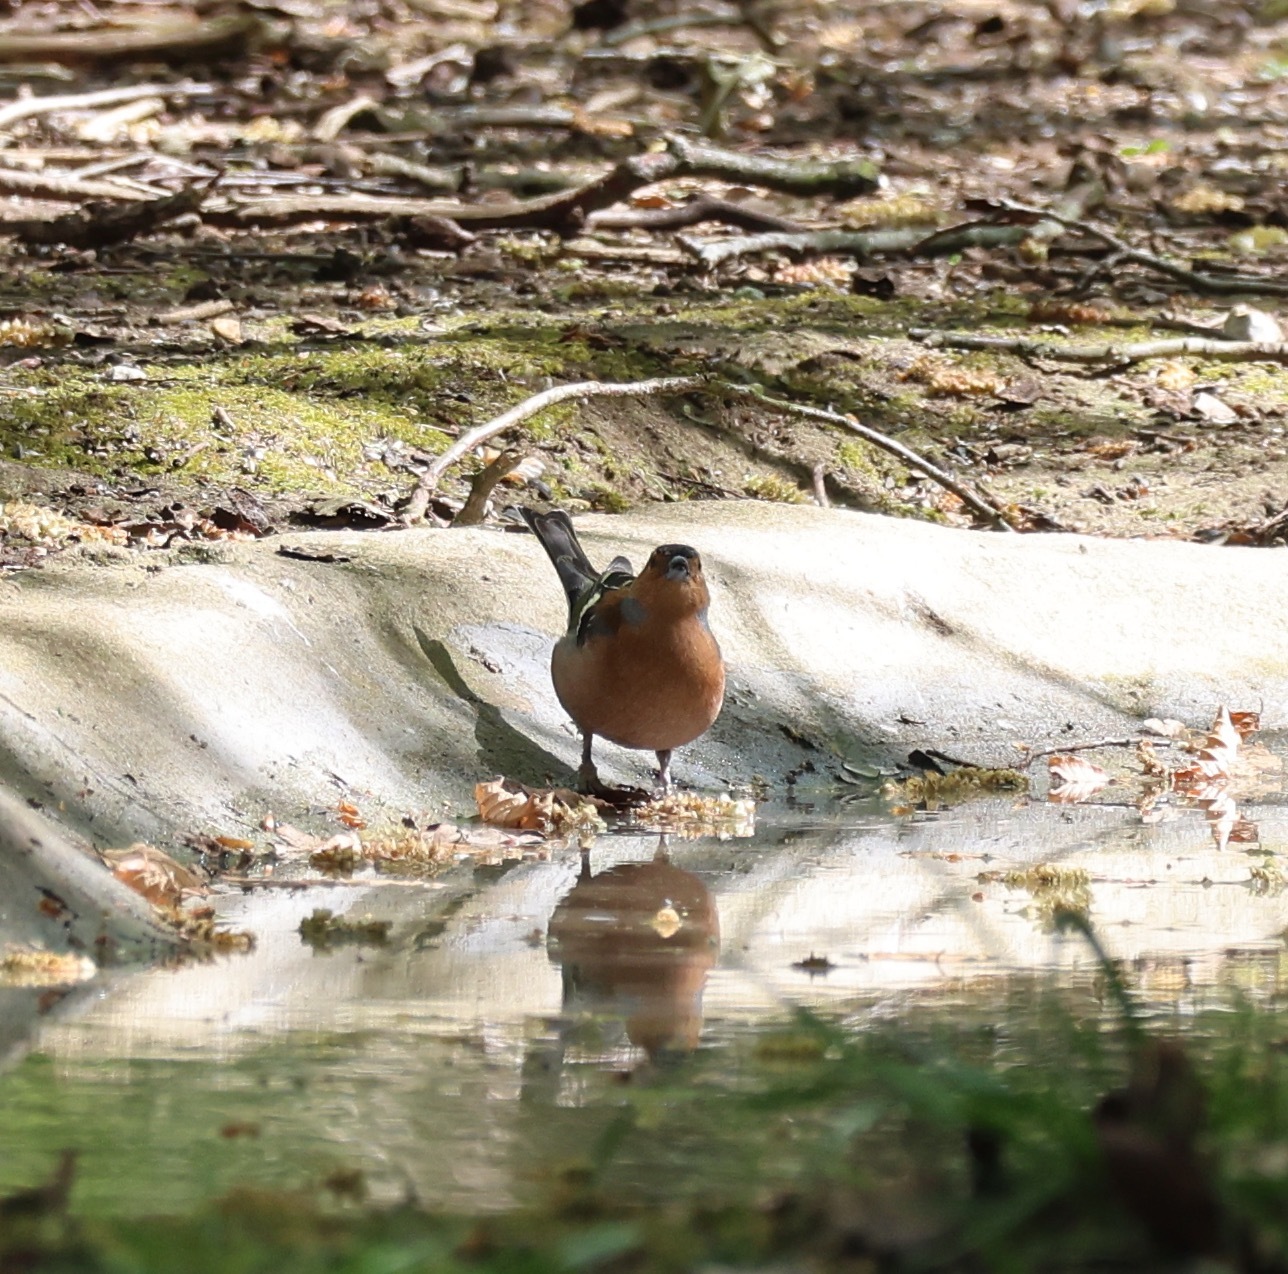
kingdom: Animalia
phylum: Chordata
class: Aves
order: Passeriformes
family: Fringillidae
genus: Fringilla
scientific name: Fringilla coelebs
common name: Common chaffinch
